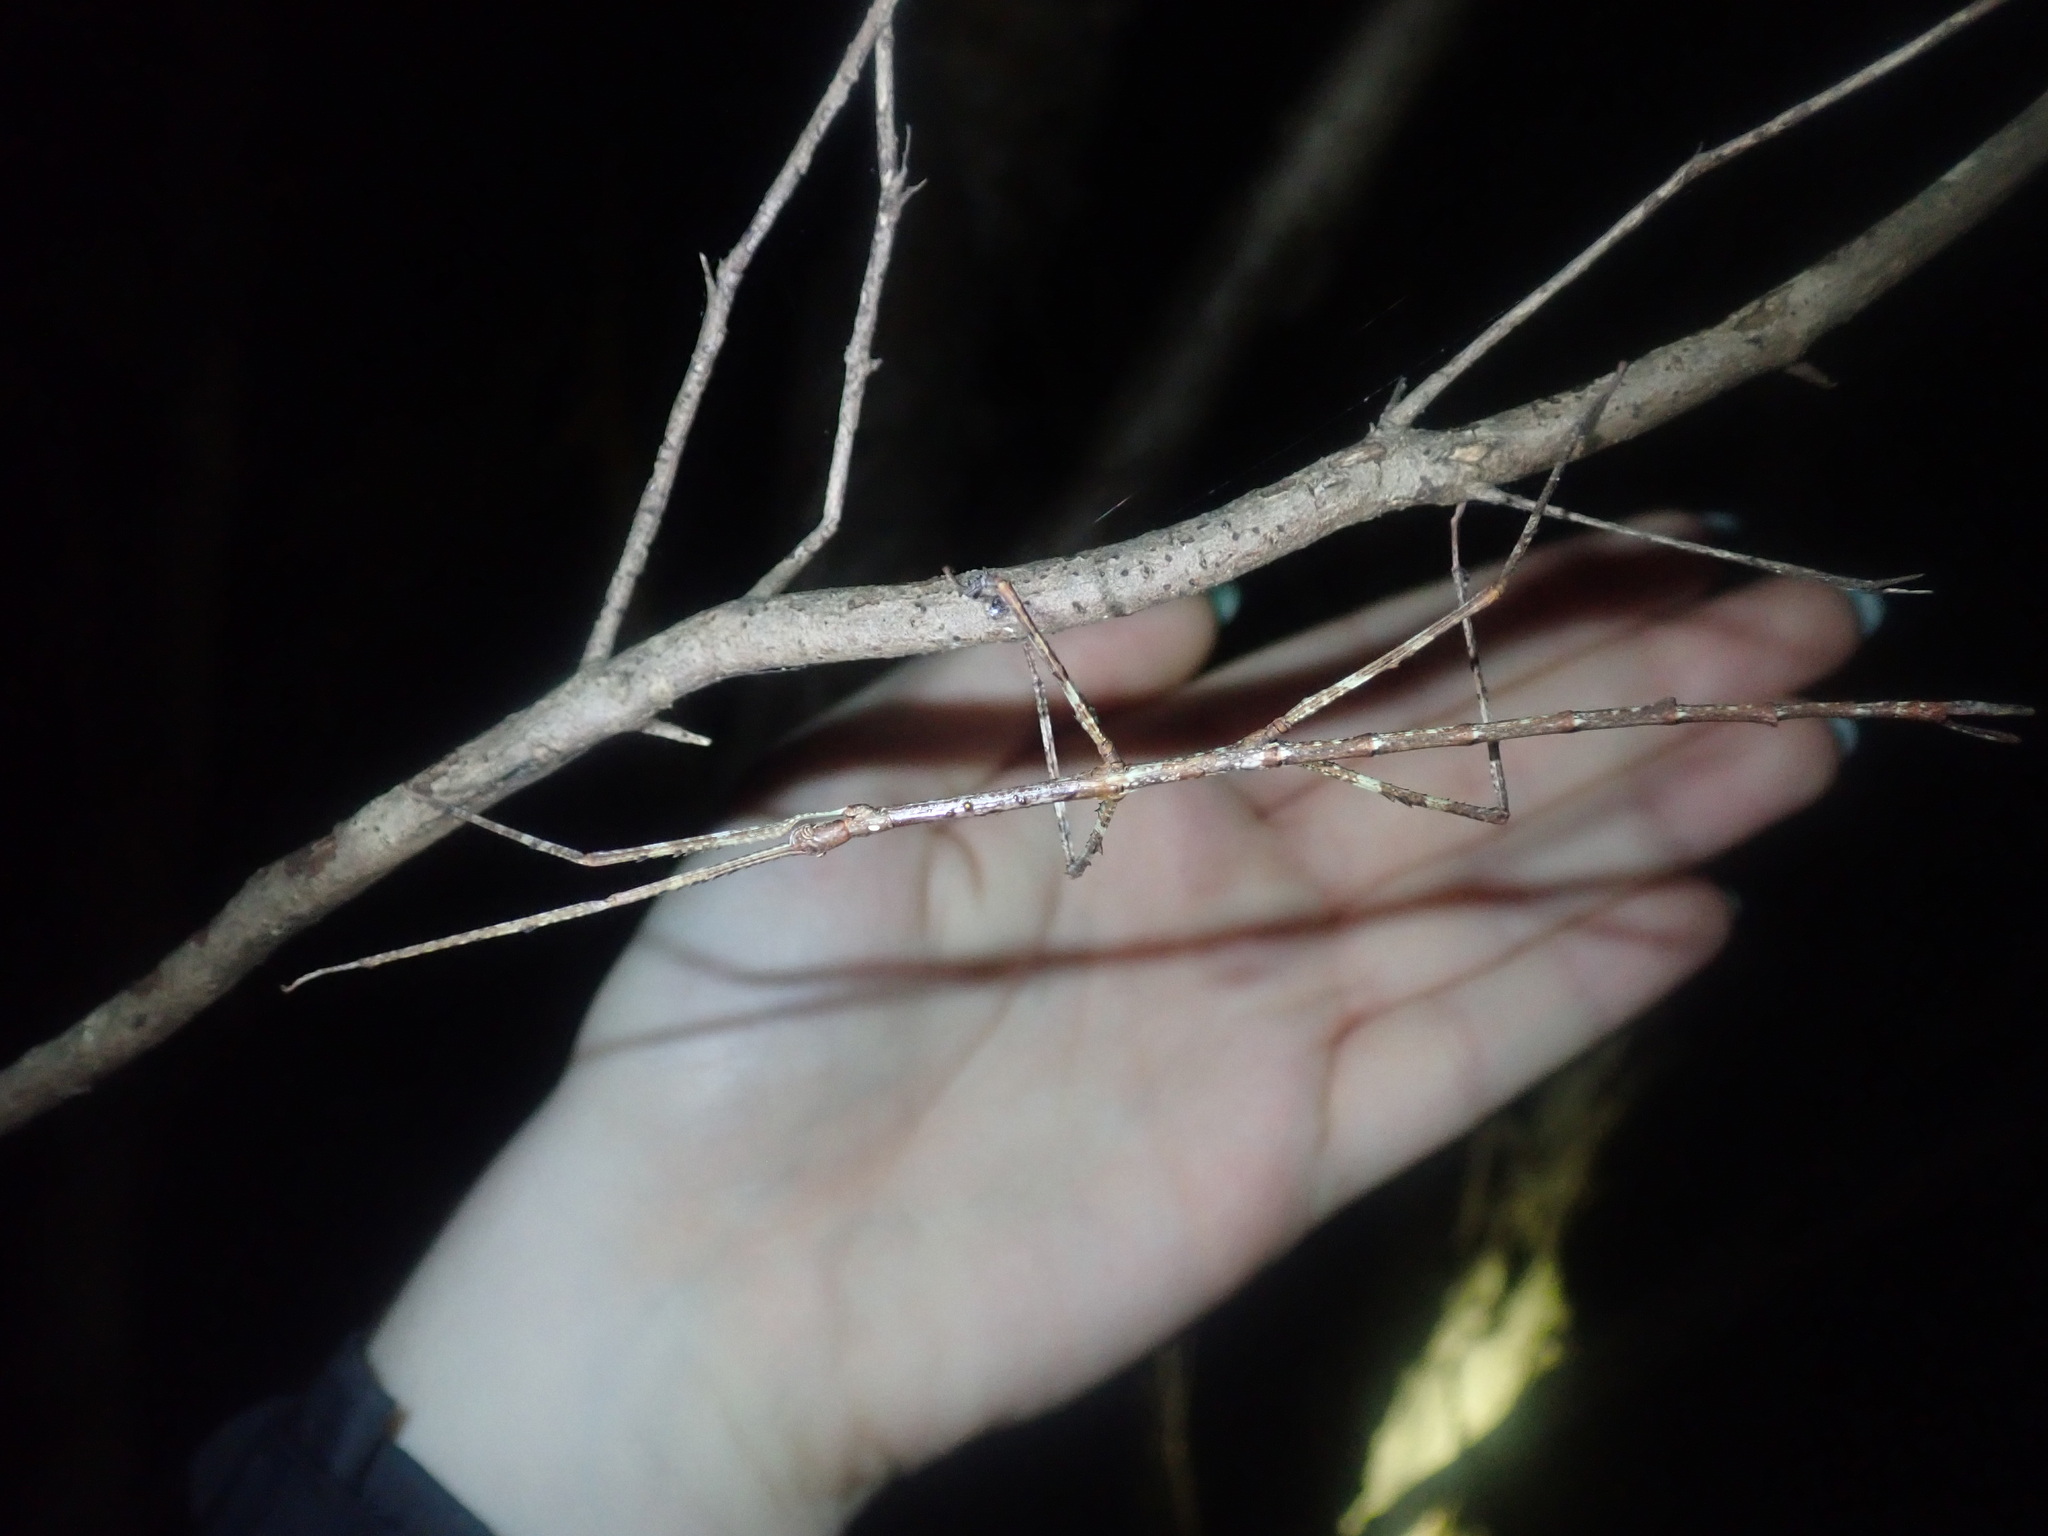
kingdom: Animalia
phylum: Arthropoda
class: Insecta
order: Phasmida
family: Phasmatidae
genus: Ctenomorpha
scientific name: Ctenomorpha marginipennis
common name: Margined-winged stick-insect
